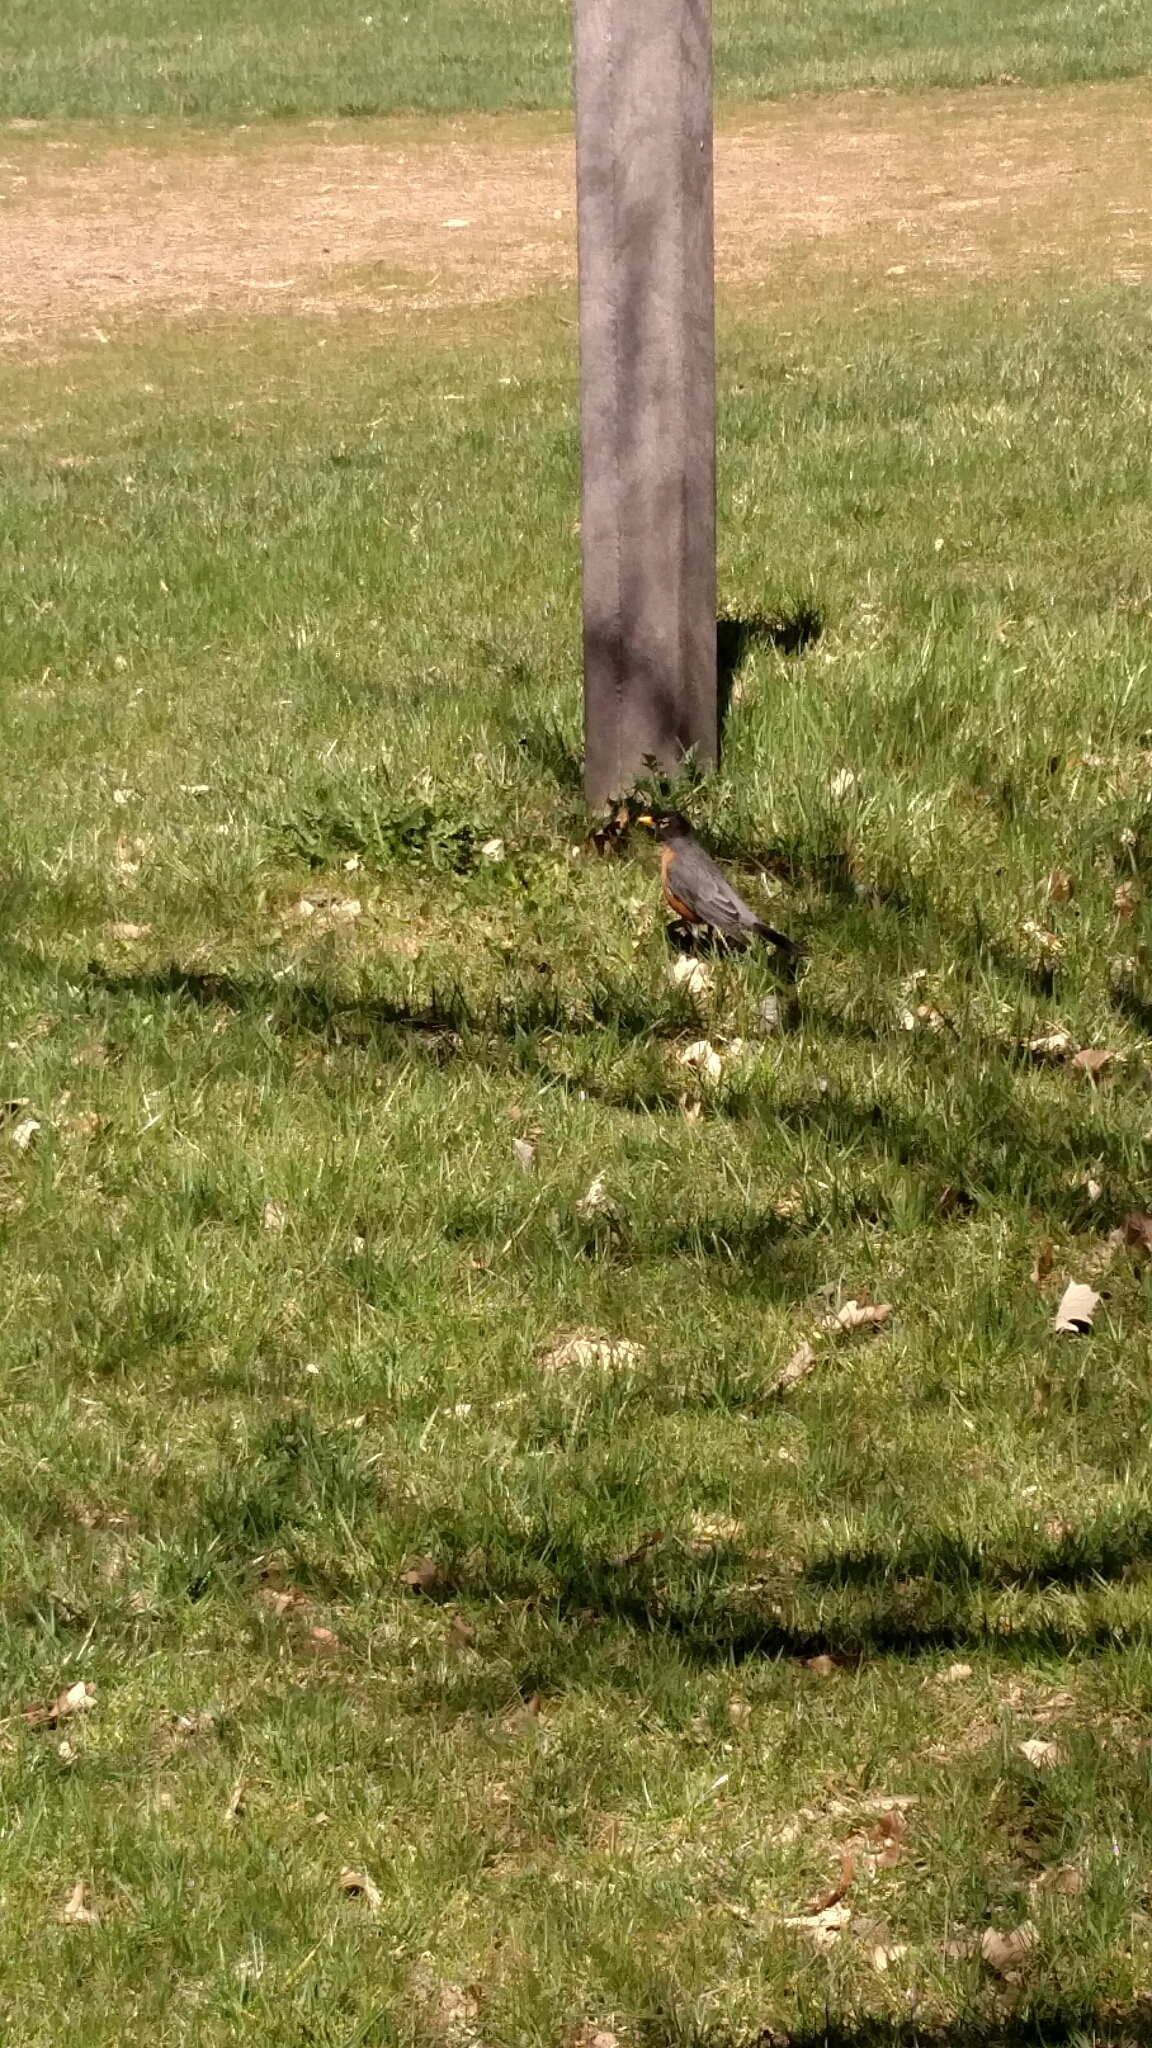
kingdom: Animalia
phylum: Chordata
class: Aves
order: Passeriformes
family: Turdidae
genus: Turdus
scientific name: Turdus migratorius
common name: American robin
